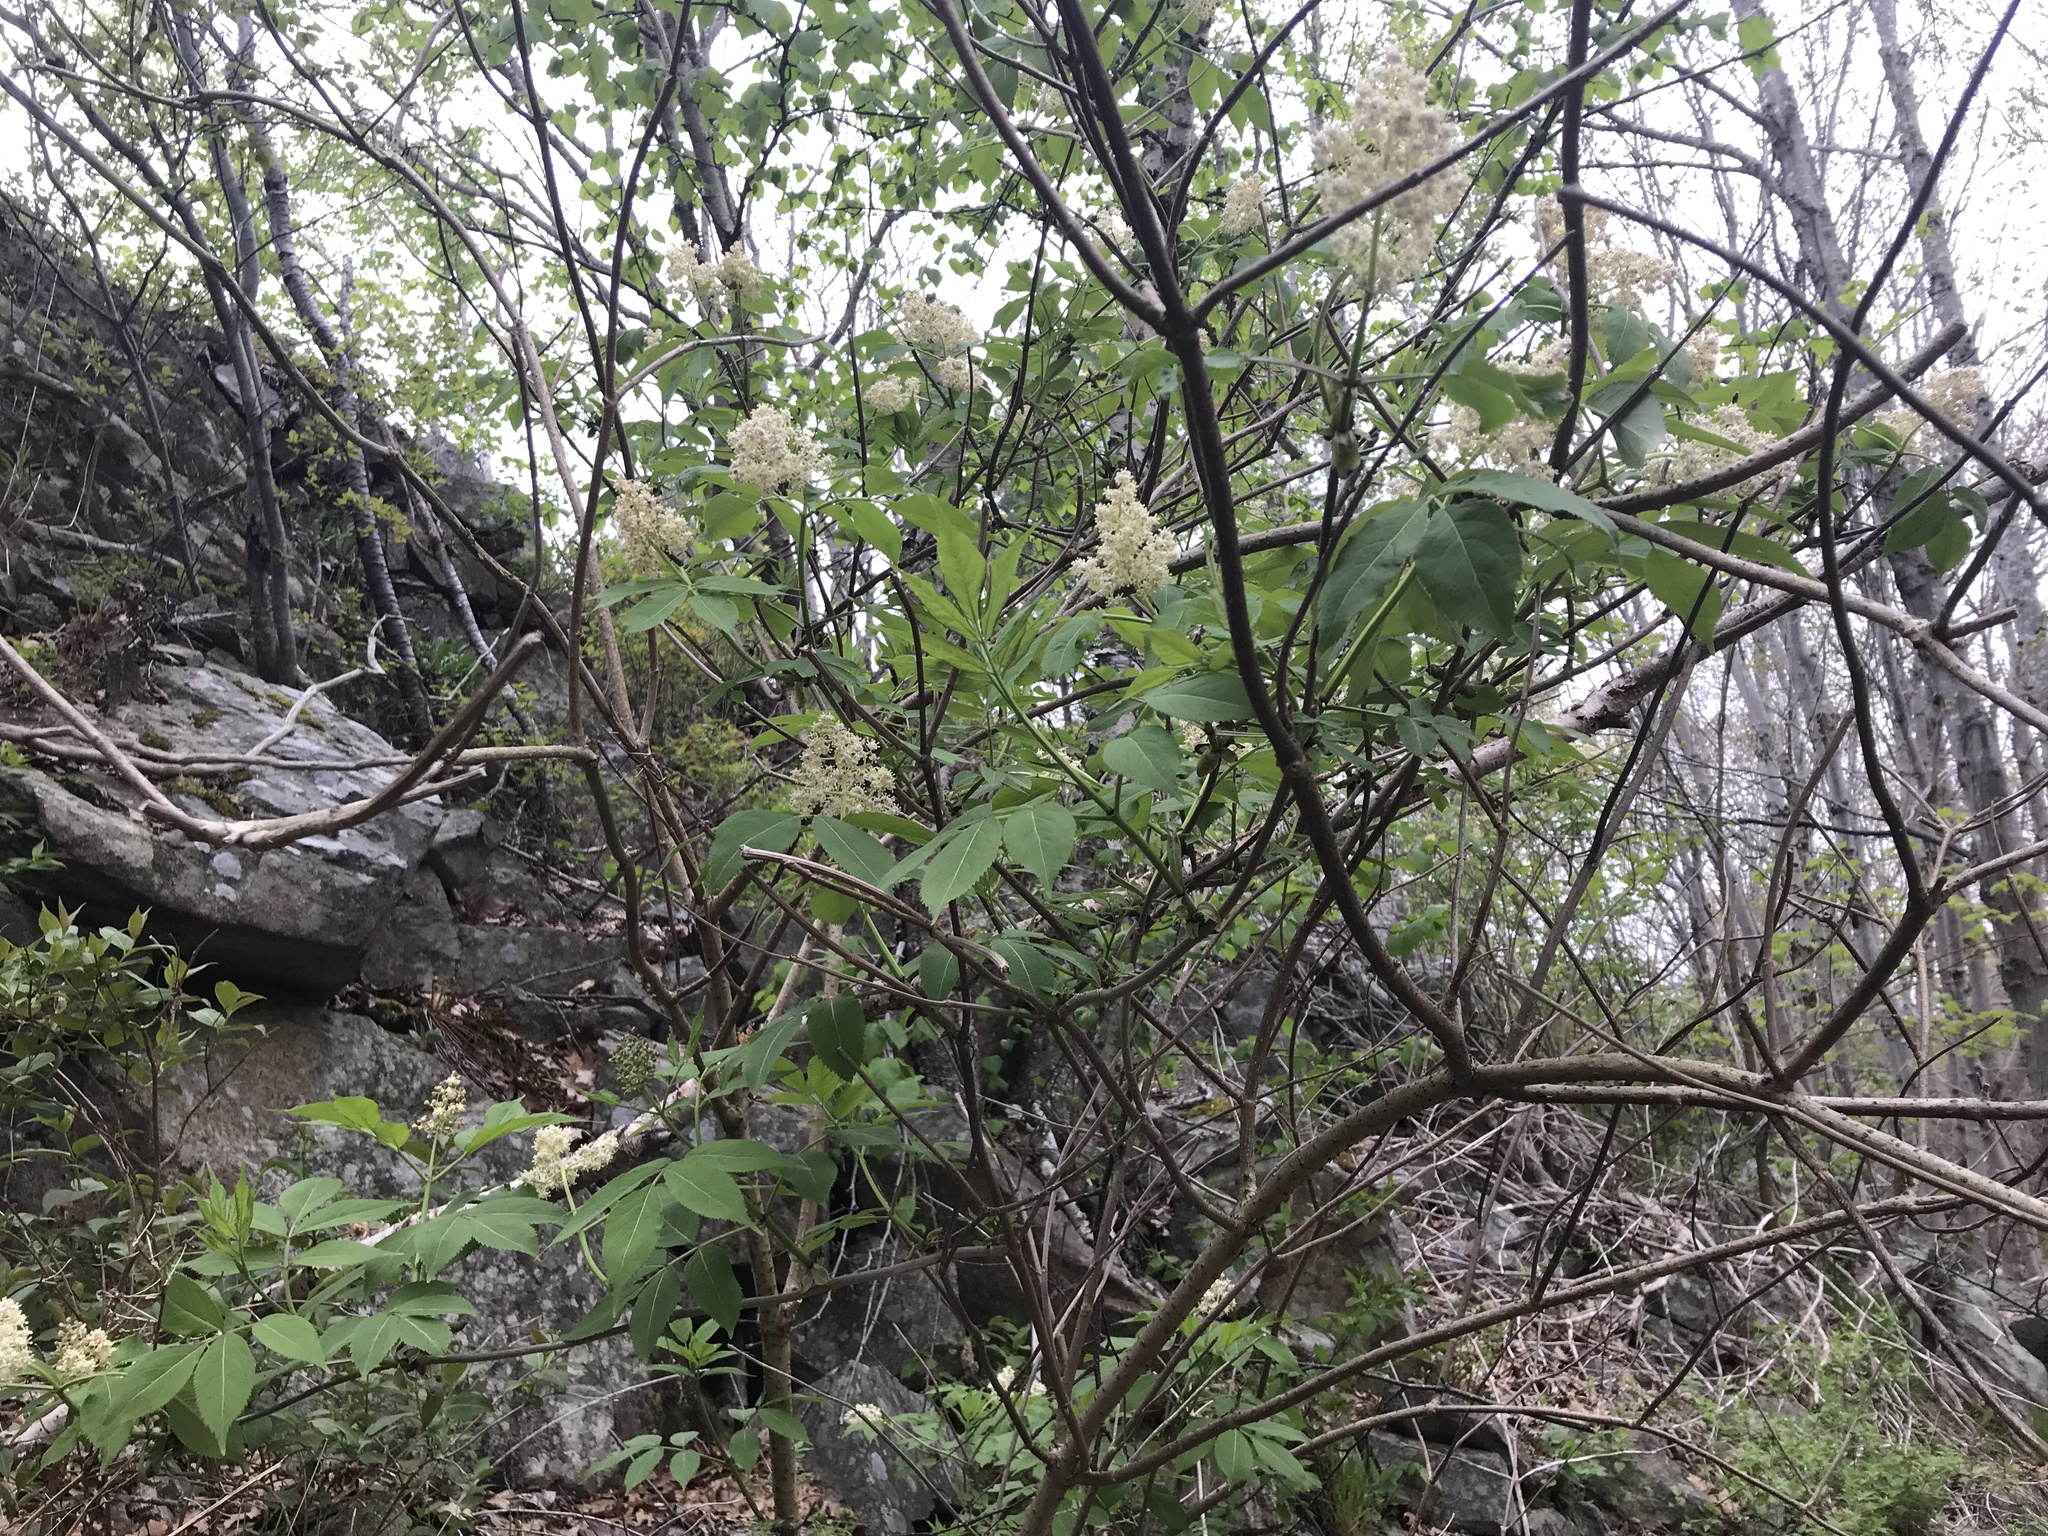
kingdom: Plantae
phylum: Tracheophyta
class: Magnoliopsida
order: Dipsacales
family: Viburnaceae
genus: Sambucus
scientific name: Sambucus racemosa
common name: Red-berried elder
